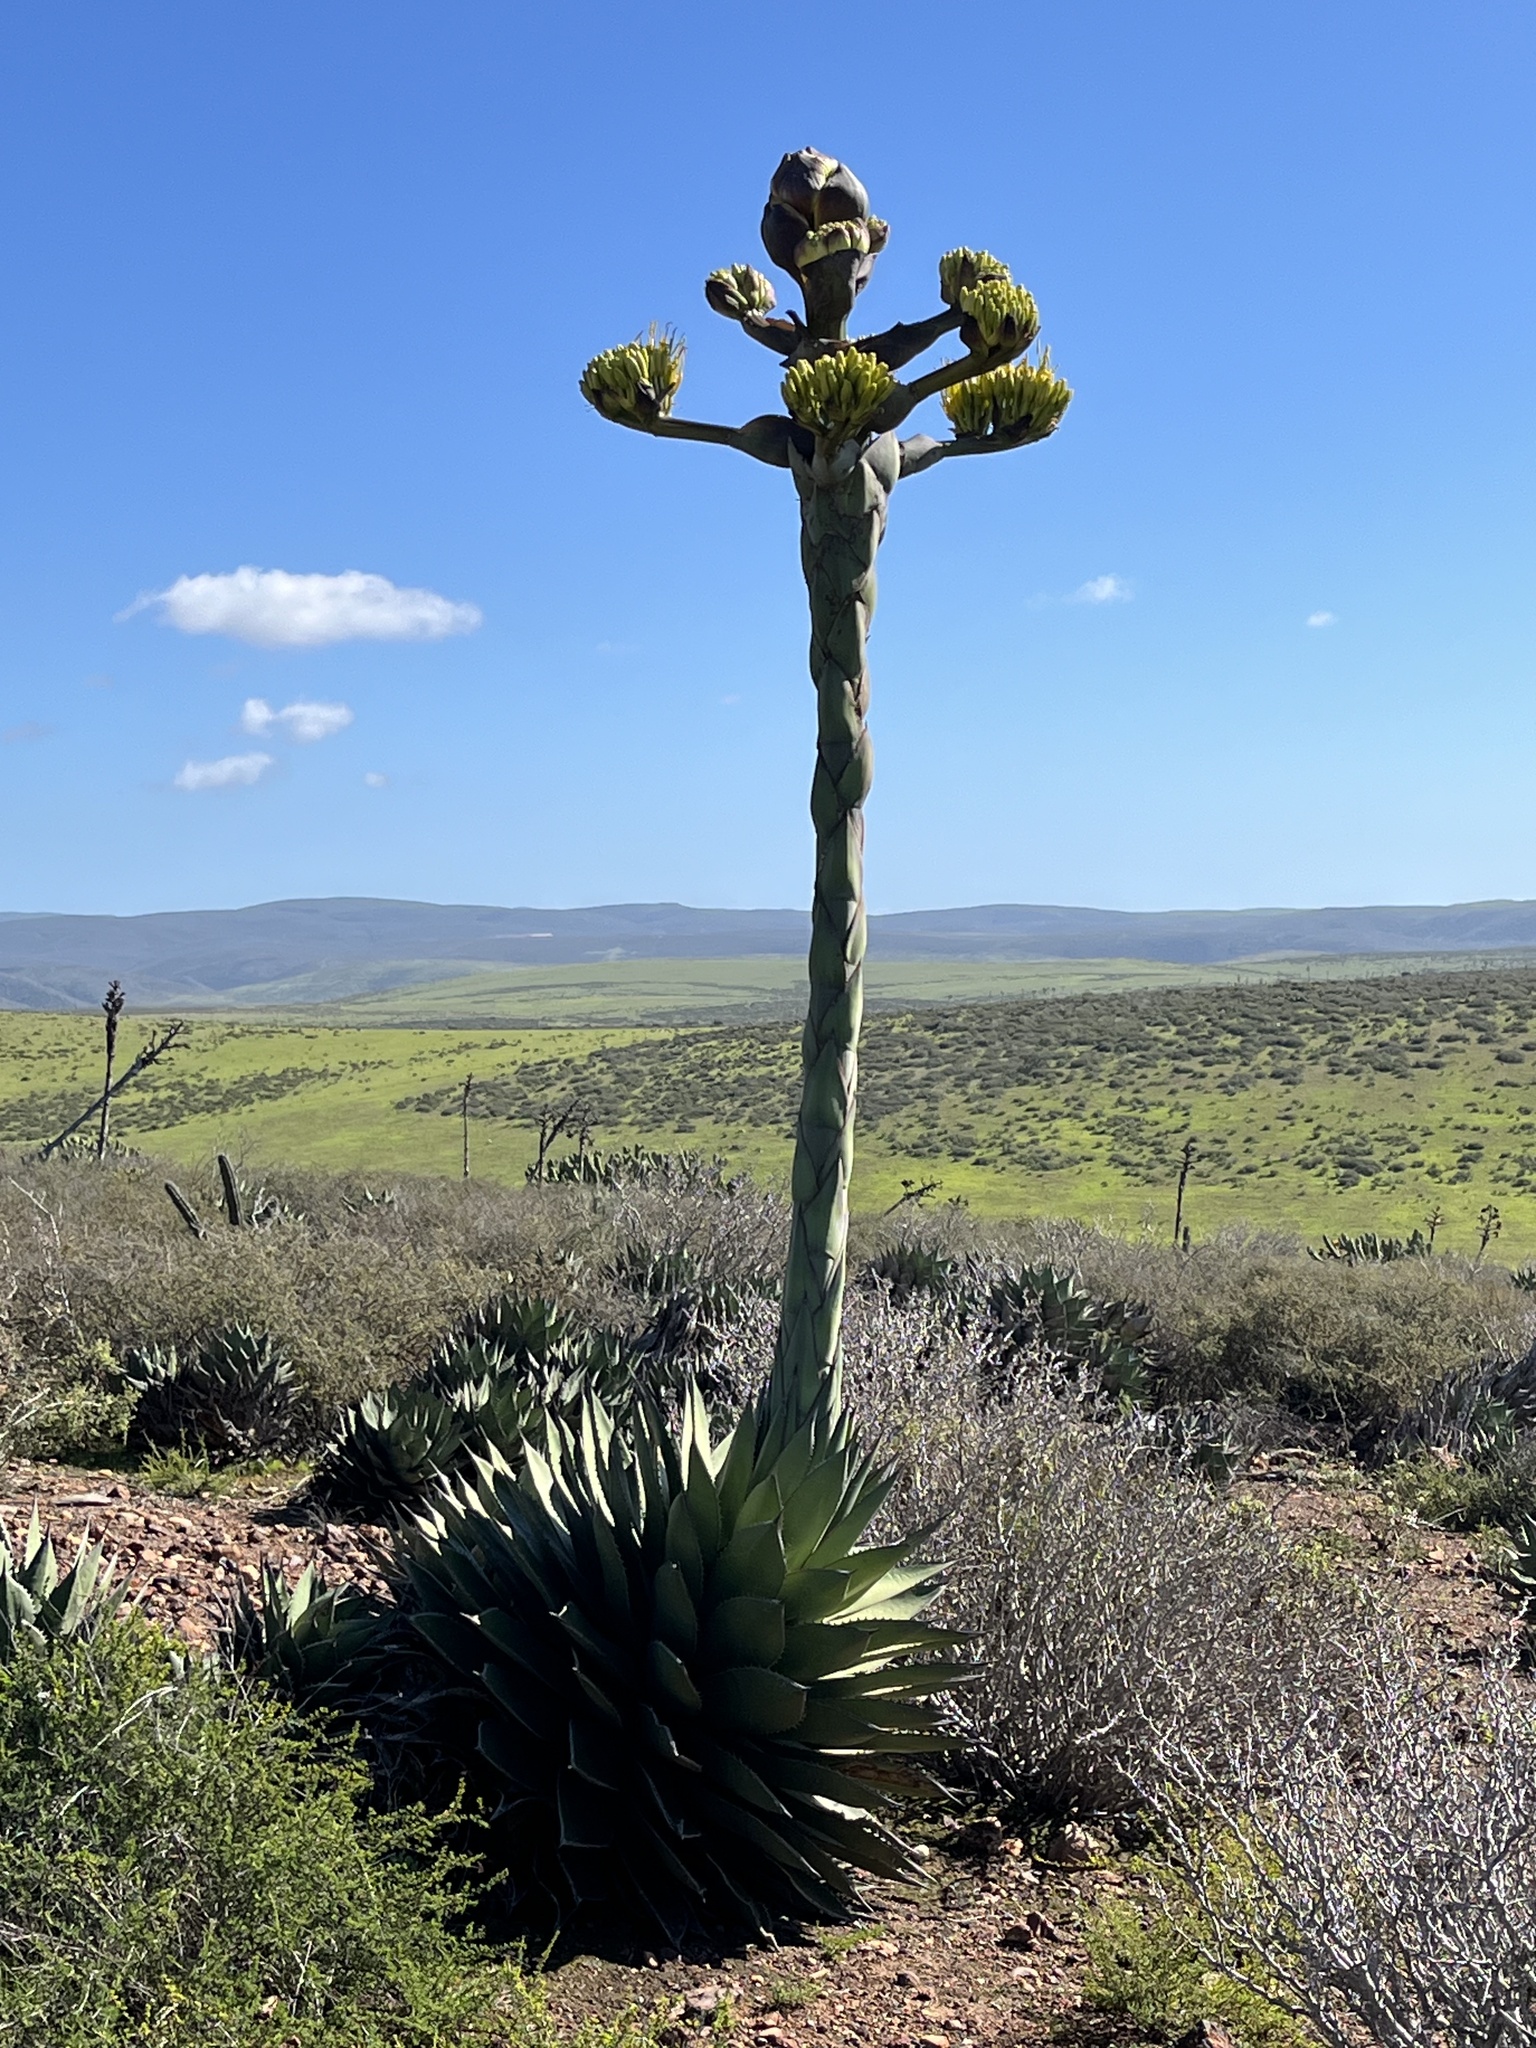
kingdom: Plantae
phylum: Tracheophyta
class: Liliopsida
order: Asparagales
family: Asparagaceae
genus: Agave
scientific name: Agave shawii
